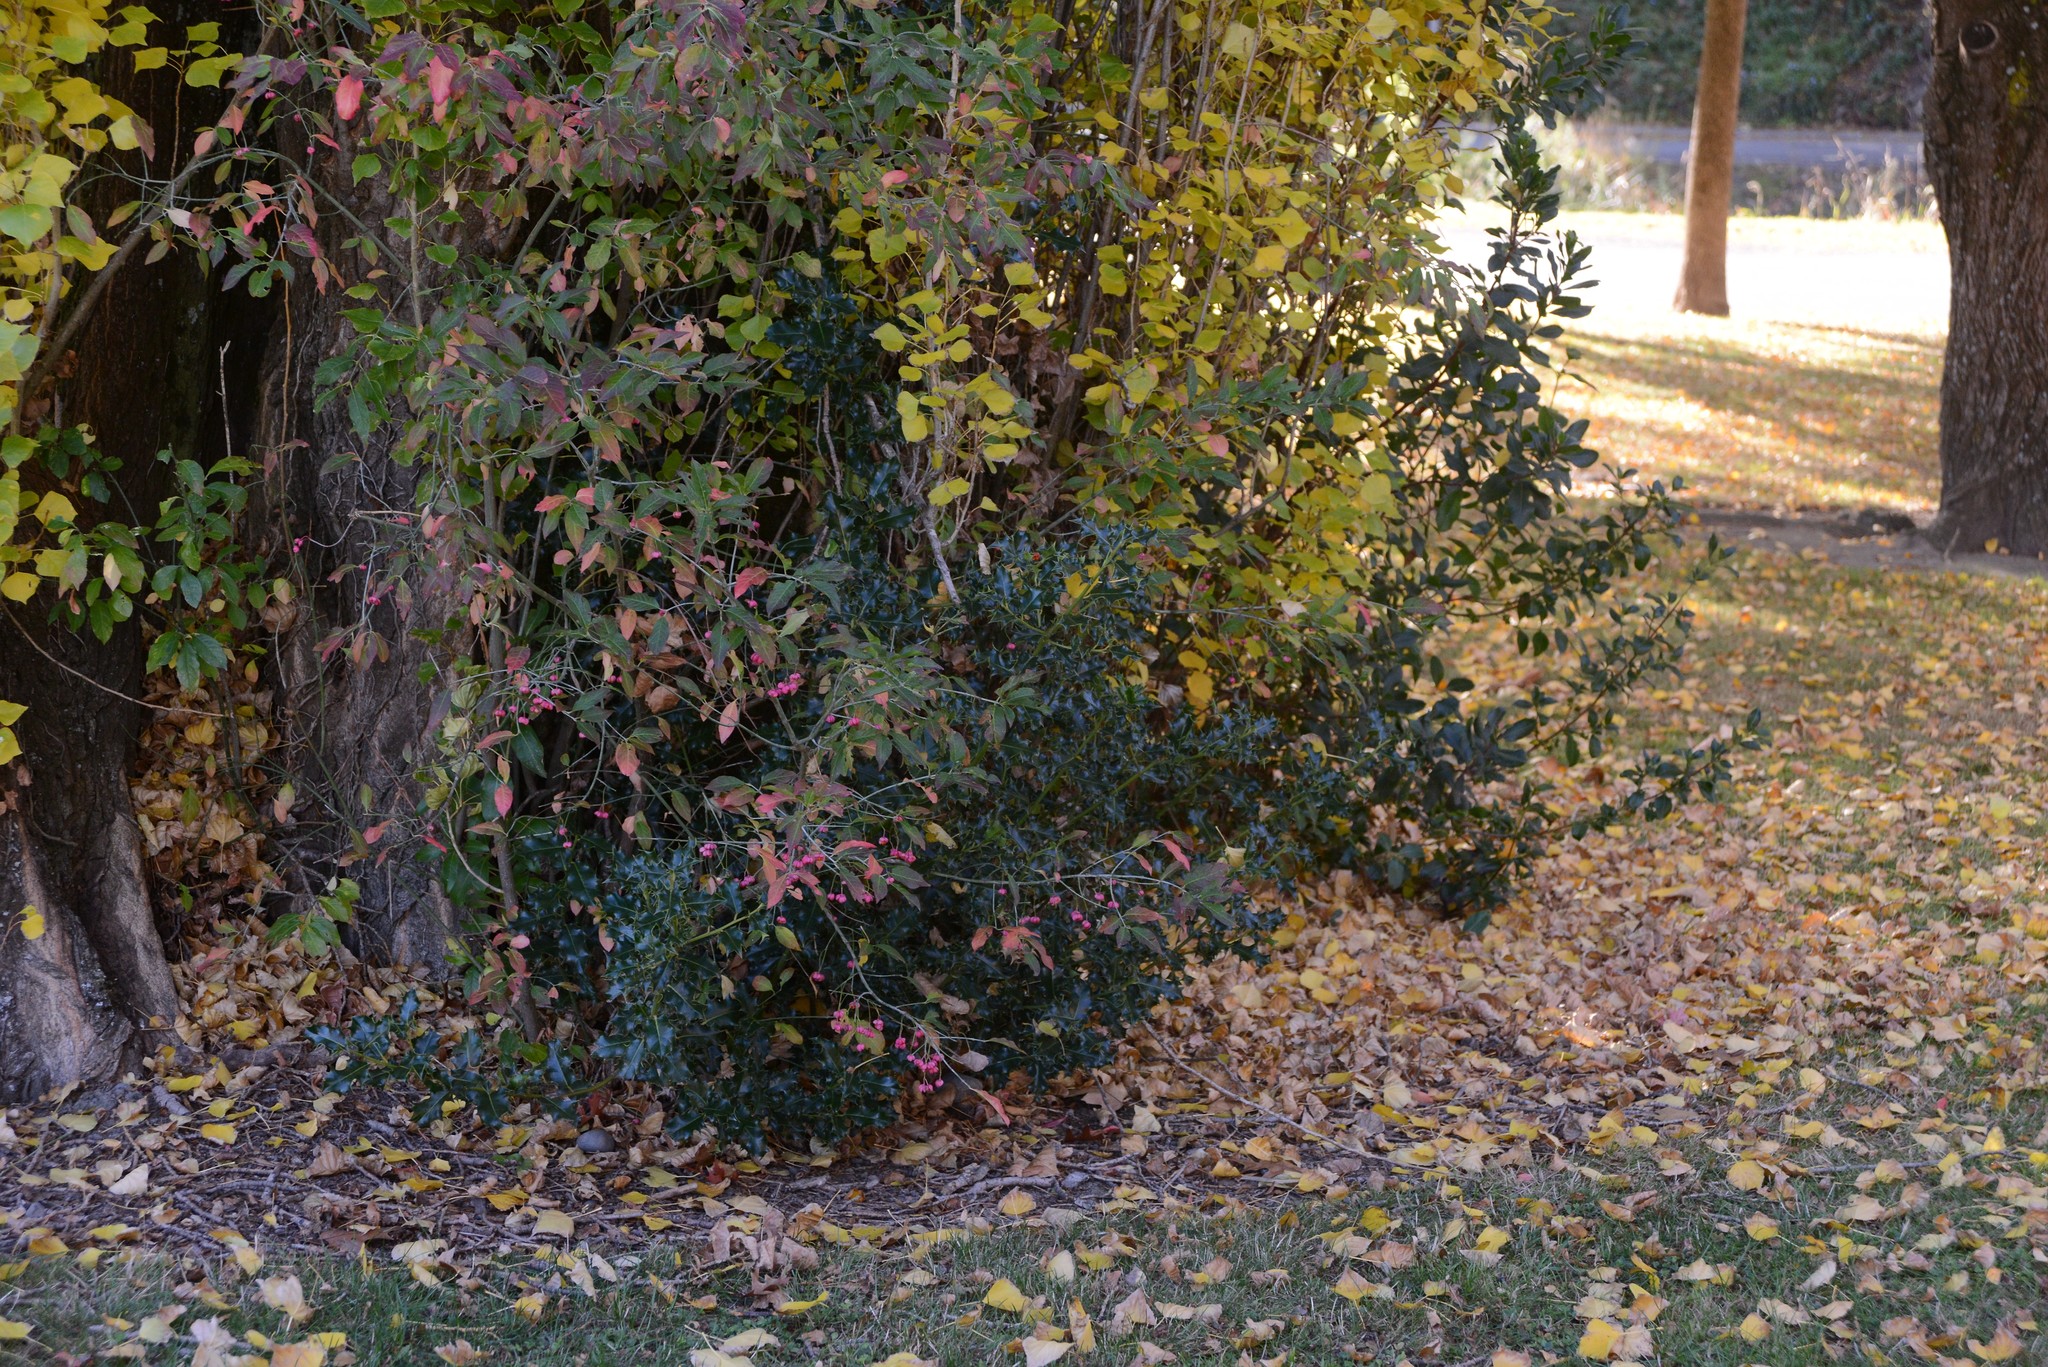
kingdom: Plantae
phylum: Tracheophyta
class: Magnoliopsida
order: Aquifoliales
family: Aquifoliaceae
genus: Ilex
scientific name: Ilex aquifolium
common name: English holly
